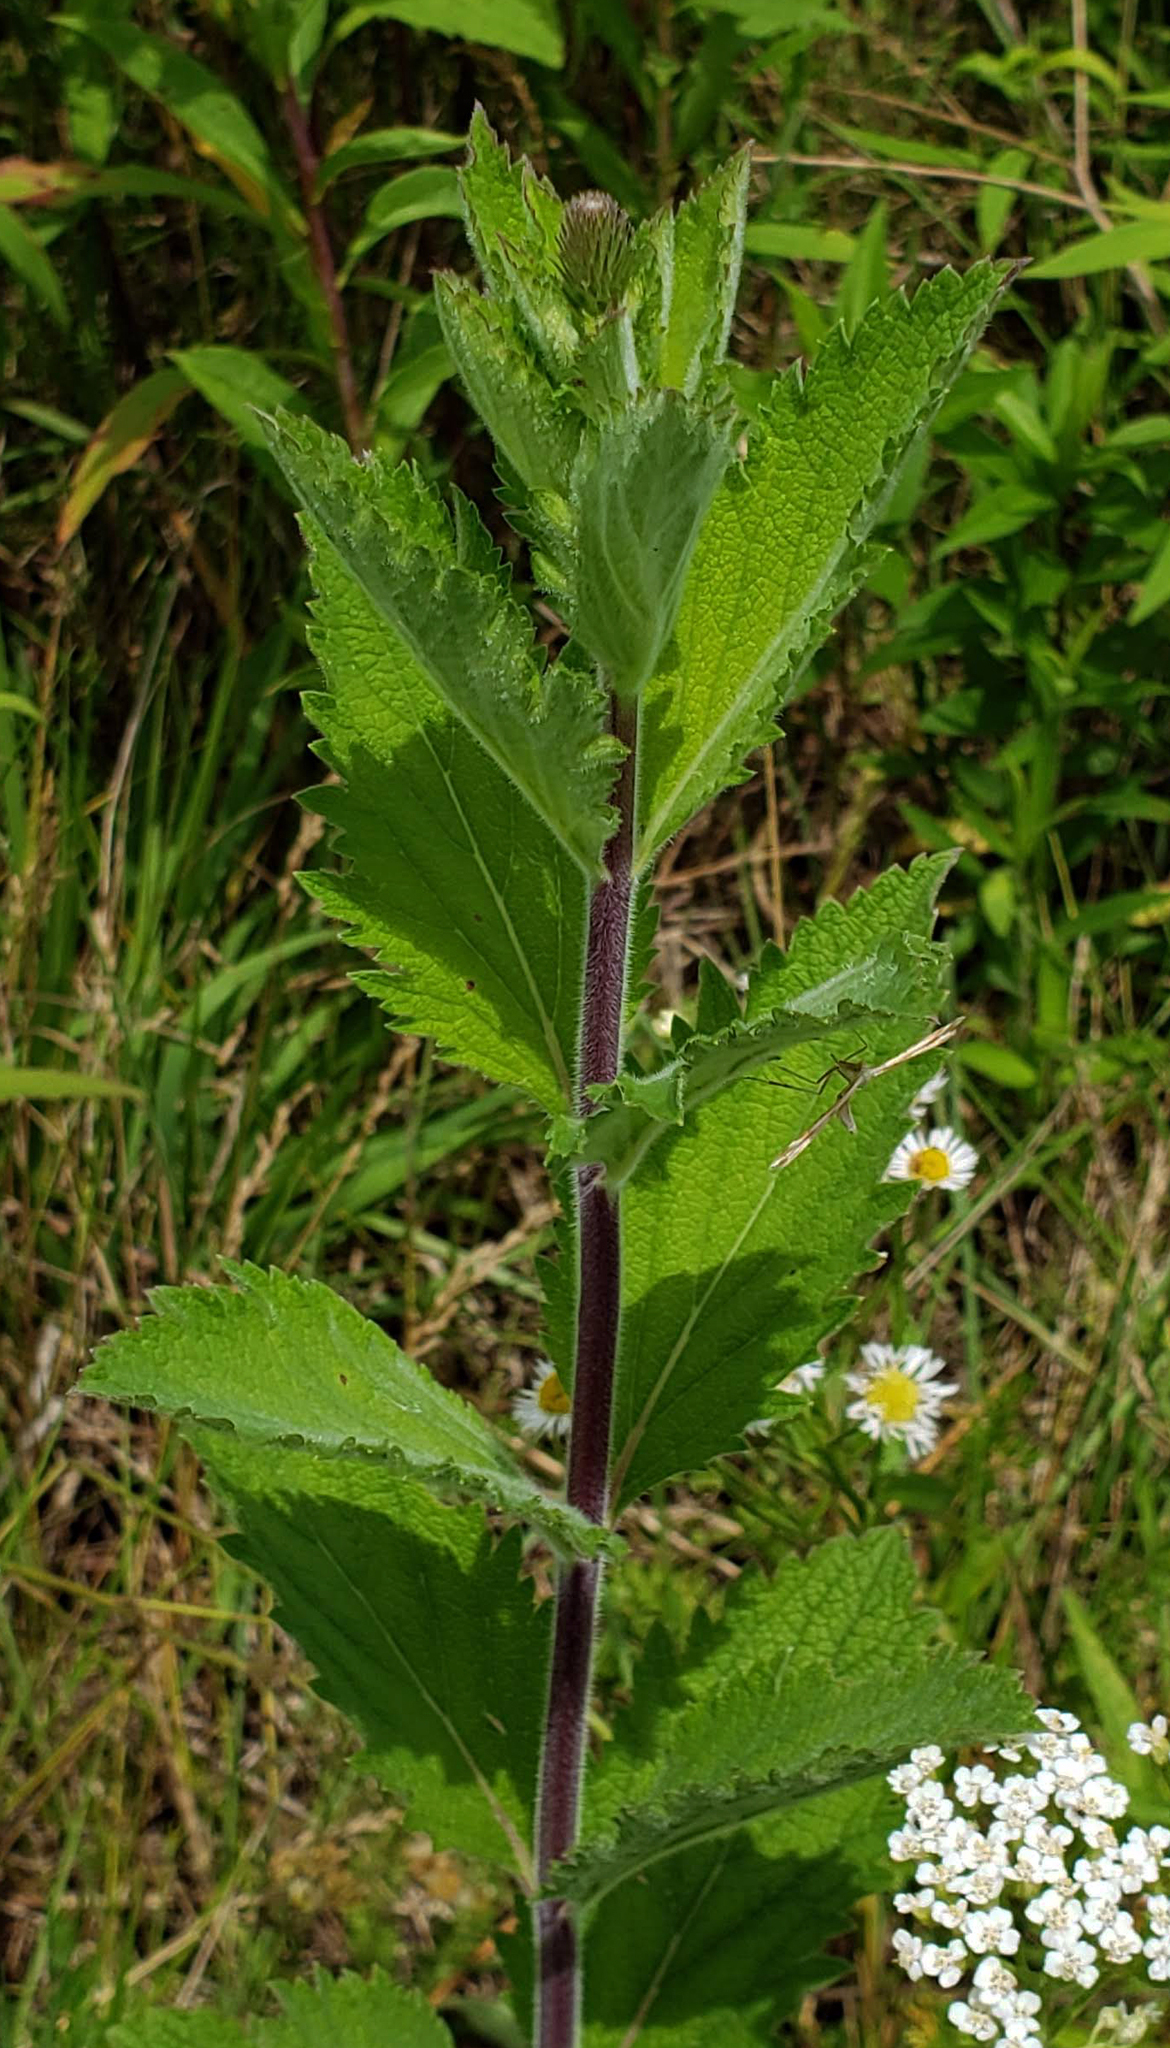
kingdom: Plantae
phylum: Tracheophyta
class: Magnoliopsida
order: Lamiales
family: Verbenaceae
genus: Verbena
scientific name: Verbena stricta
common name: Hoary vervain
